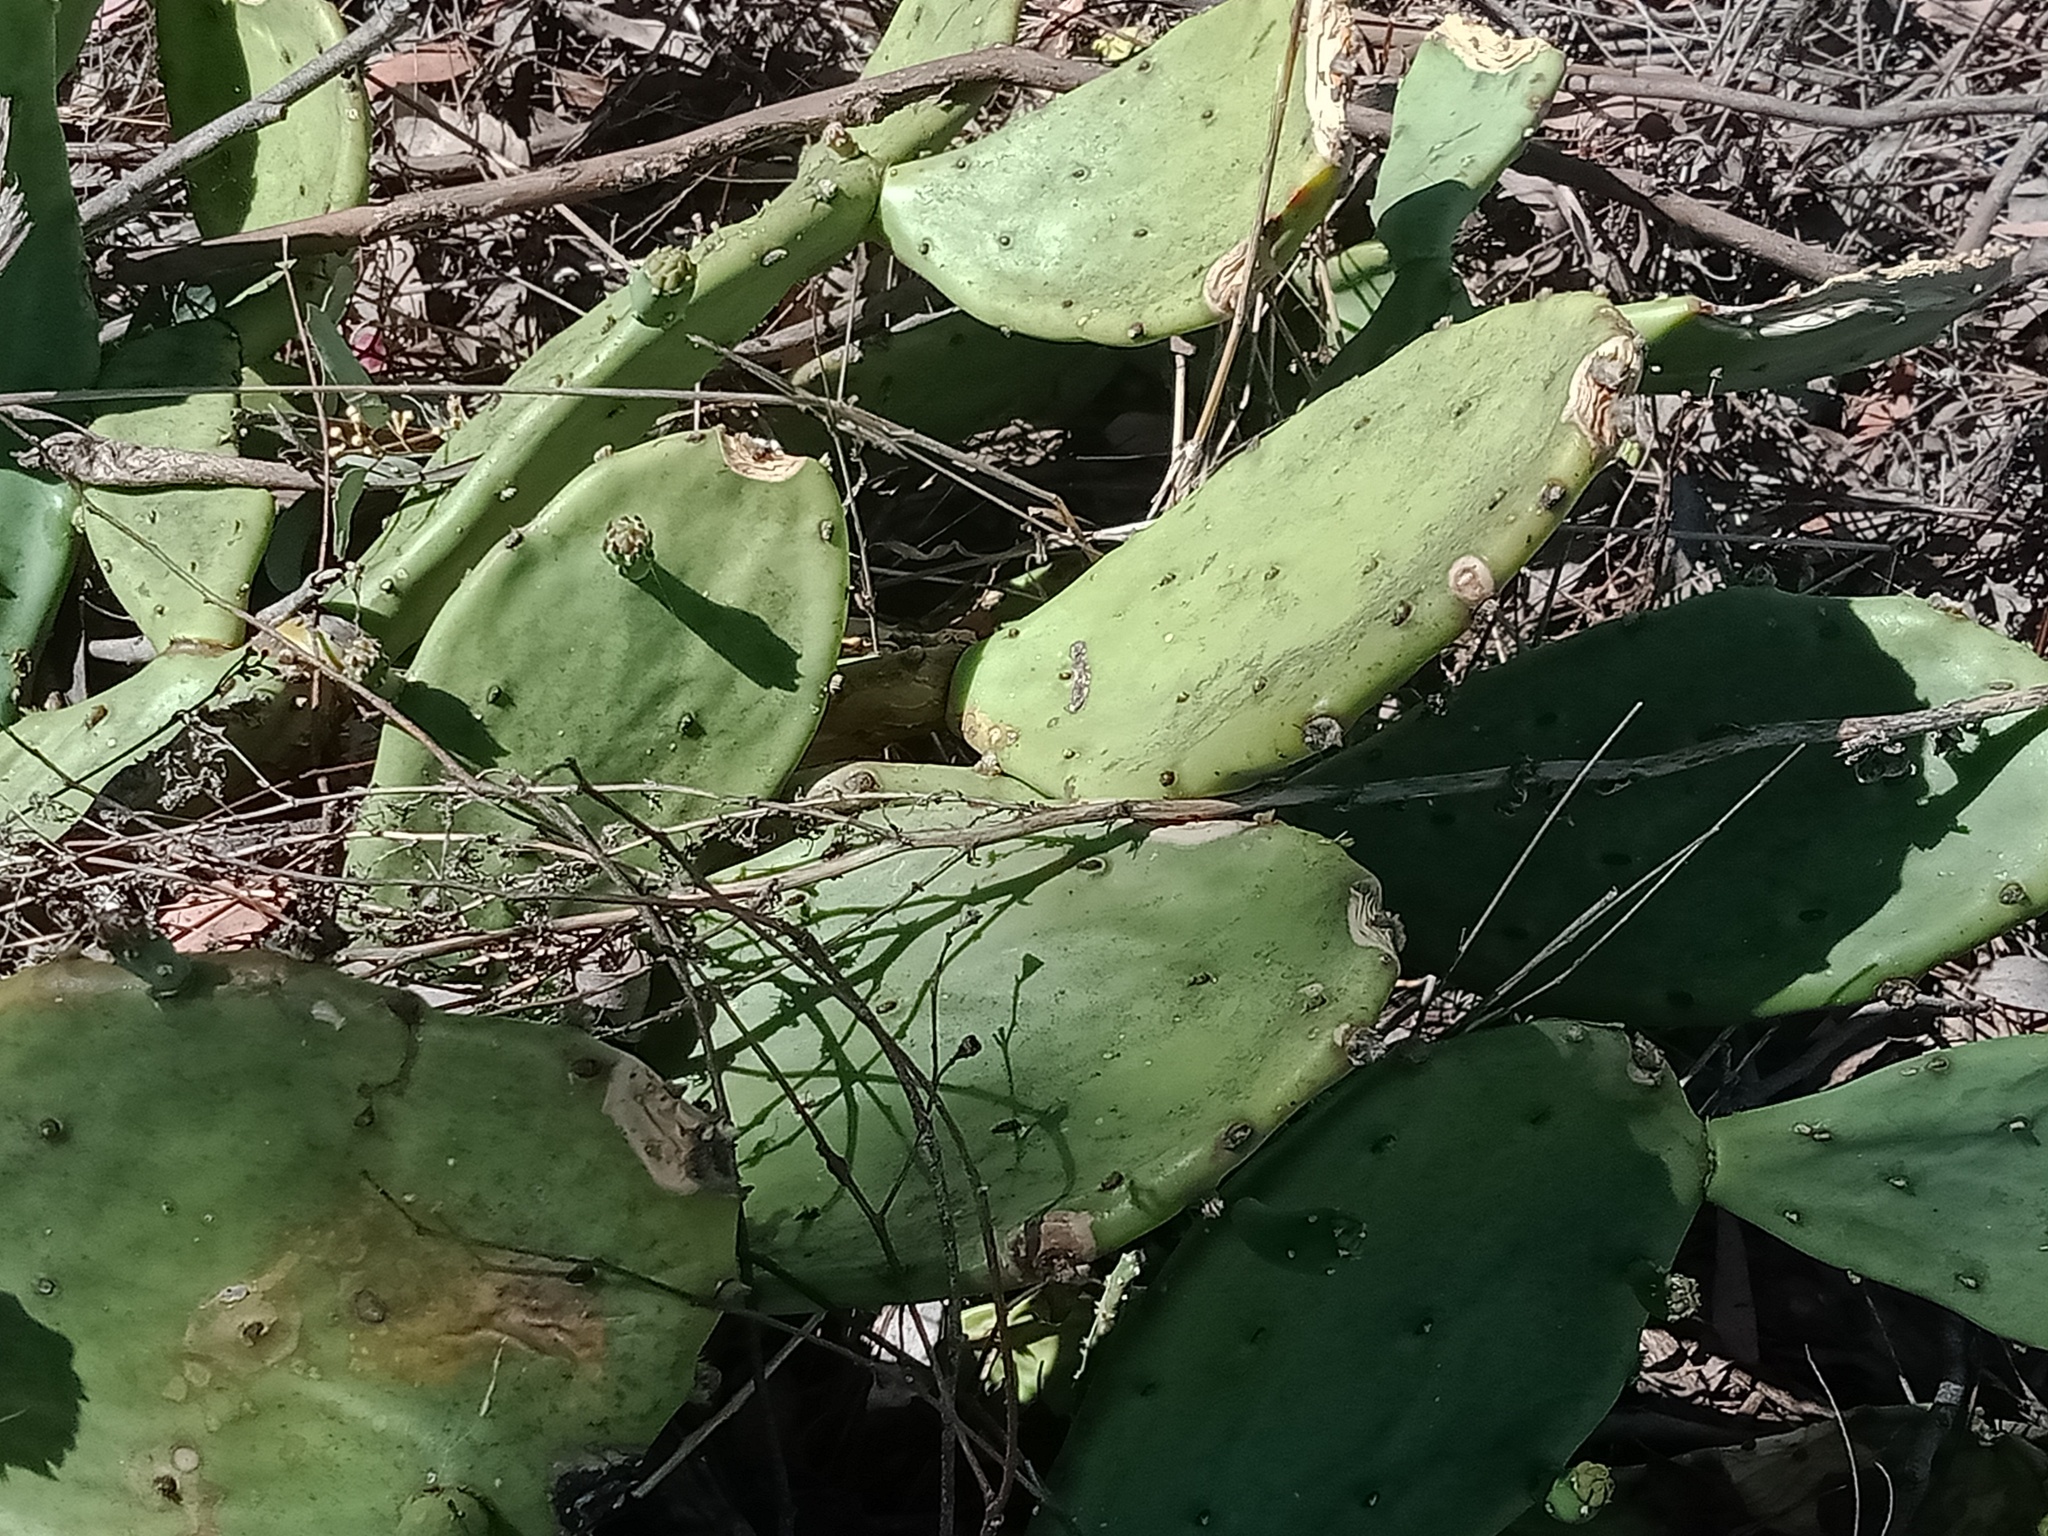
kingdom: Plantae
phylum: Tracheophyta
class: Magnoliopsida
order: Caryophyllales
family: Cactaceae
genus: Opuntia
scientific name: Opuntia stricta
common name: Erect pricklypear
